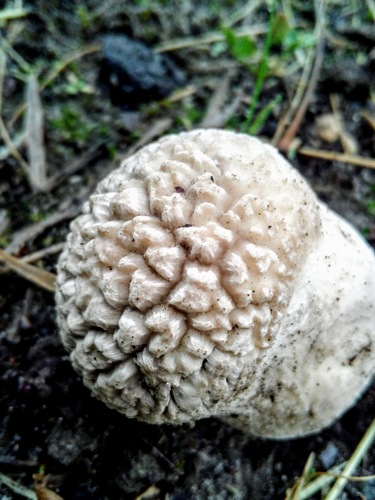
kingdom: Fungi
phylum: Basidiomycota
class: Agaricomycetes
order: Agaricales
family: Lycoperdaceae
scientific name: Lycoperdaceae
